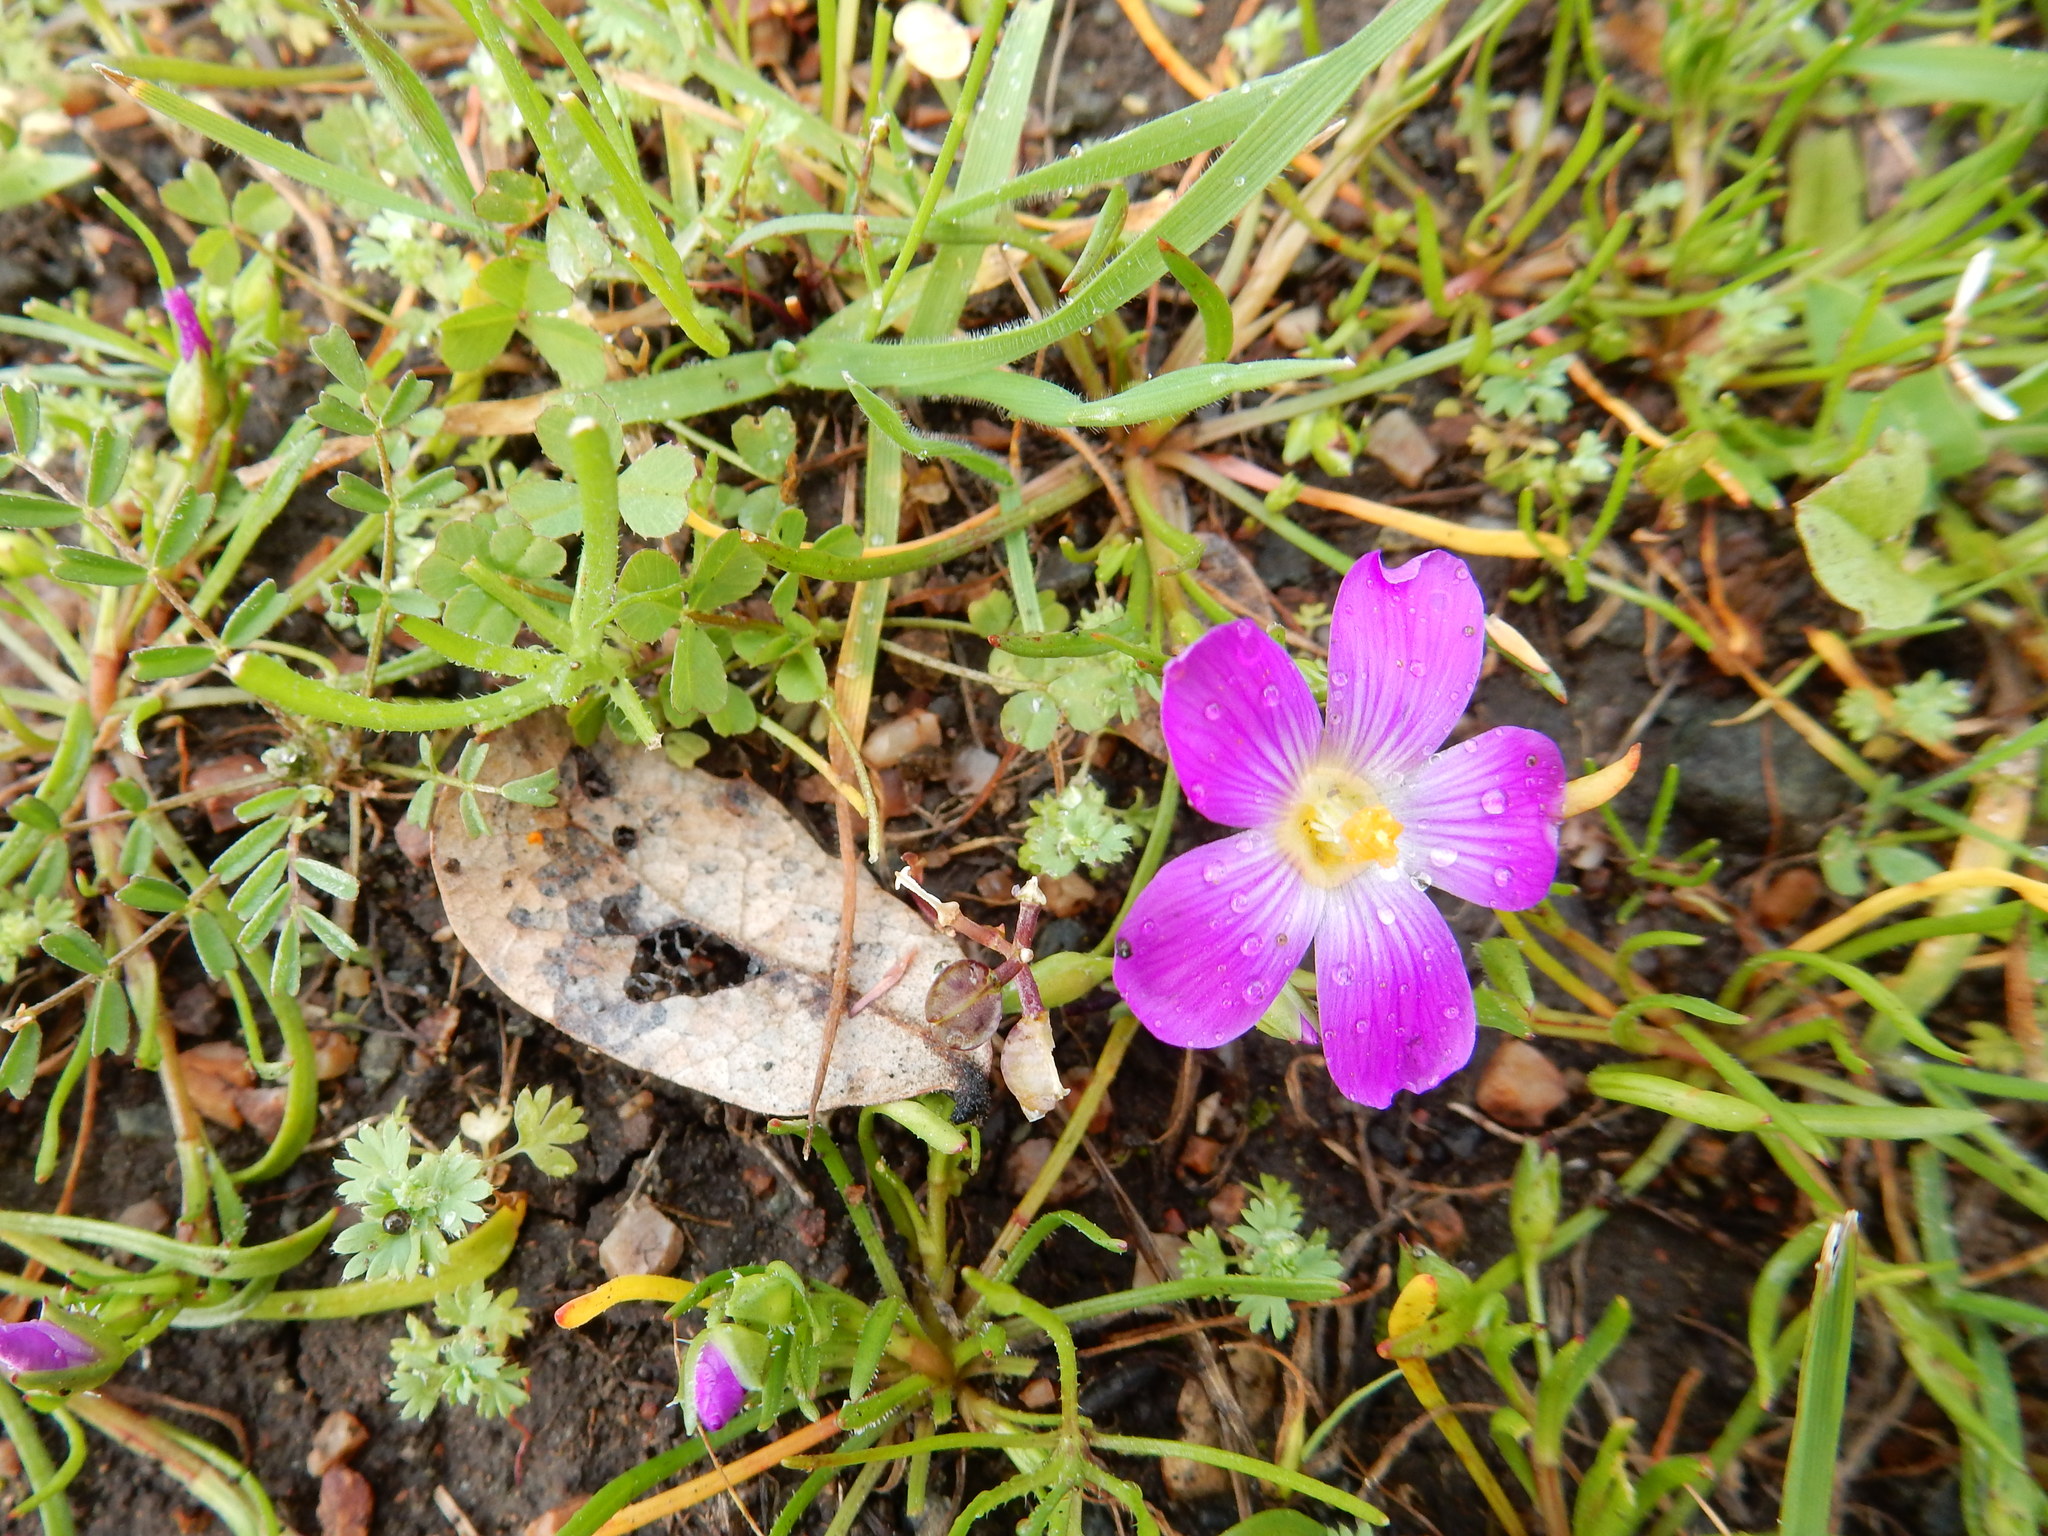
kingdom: Plantae
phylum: Tracheophyta
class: Magnoliopsida
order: Caryophyllales
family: Montiaceae
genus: Calandrinia
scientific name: Calandrinia menziesii
